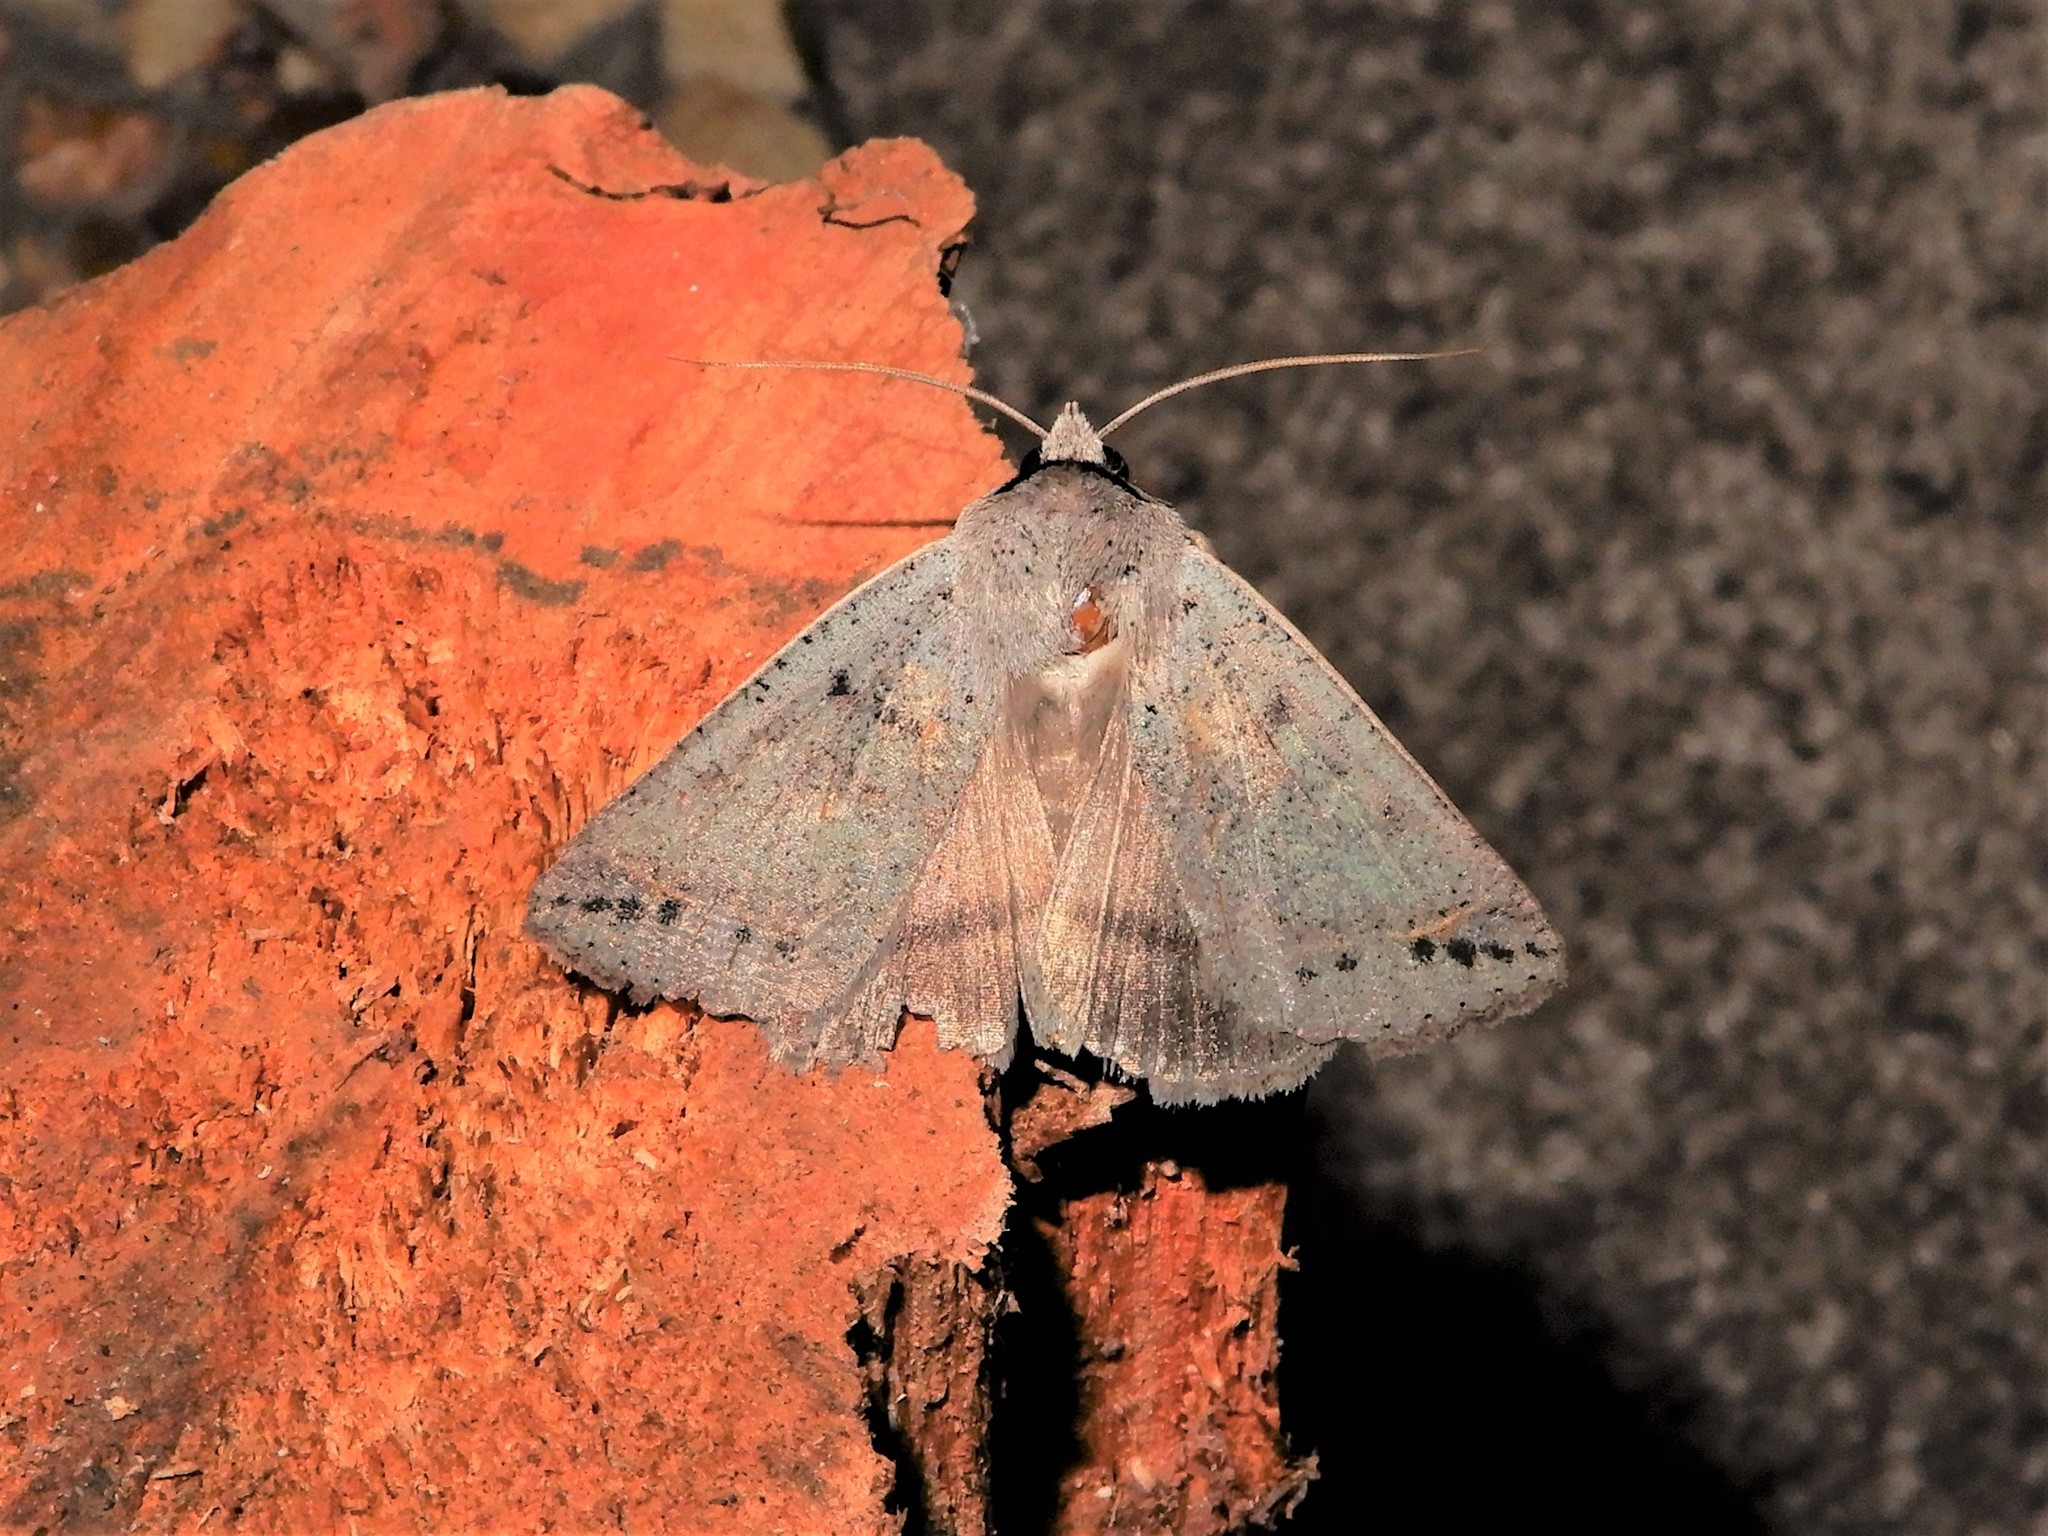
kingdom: Animalia
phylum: Arthropoda
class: Insecta
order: Lepidoptera
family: Erebidae
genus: Pantydia
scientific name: Pantydia sparsa
